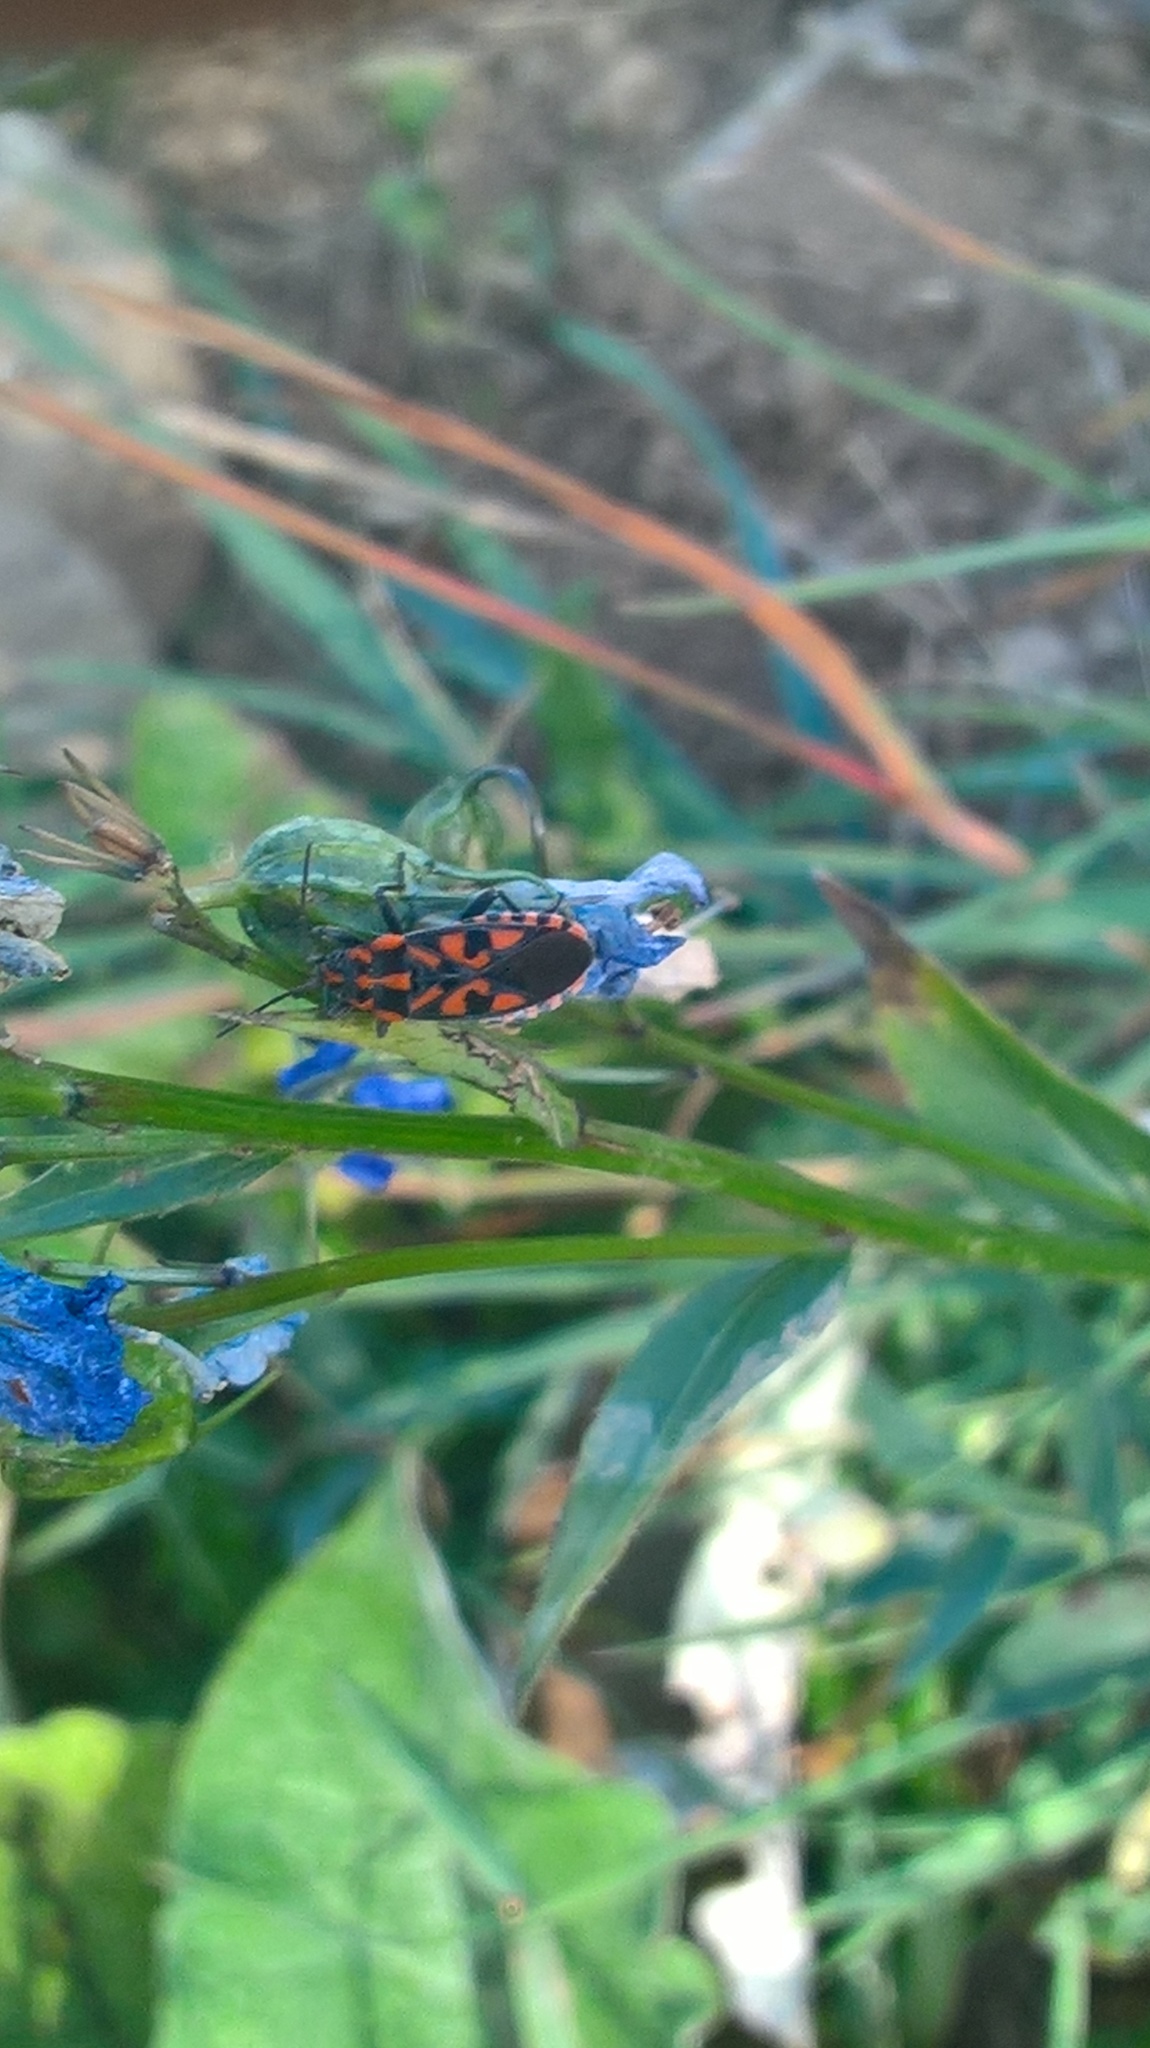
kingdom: Animalia
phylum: Arthropoda
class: Insecta
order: Hemiptera
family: Lygaeidae
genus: Spilostethus
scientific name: Spilostethus saxatilis
